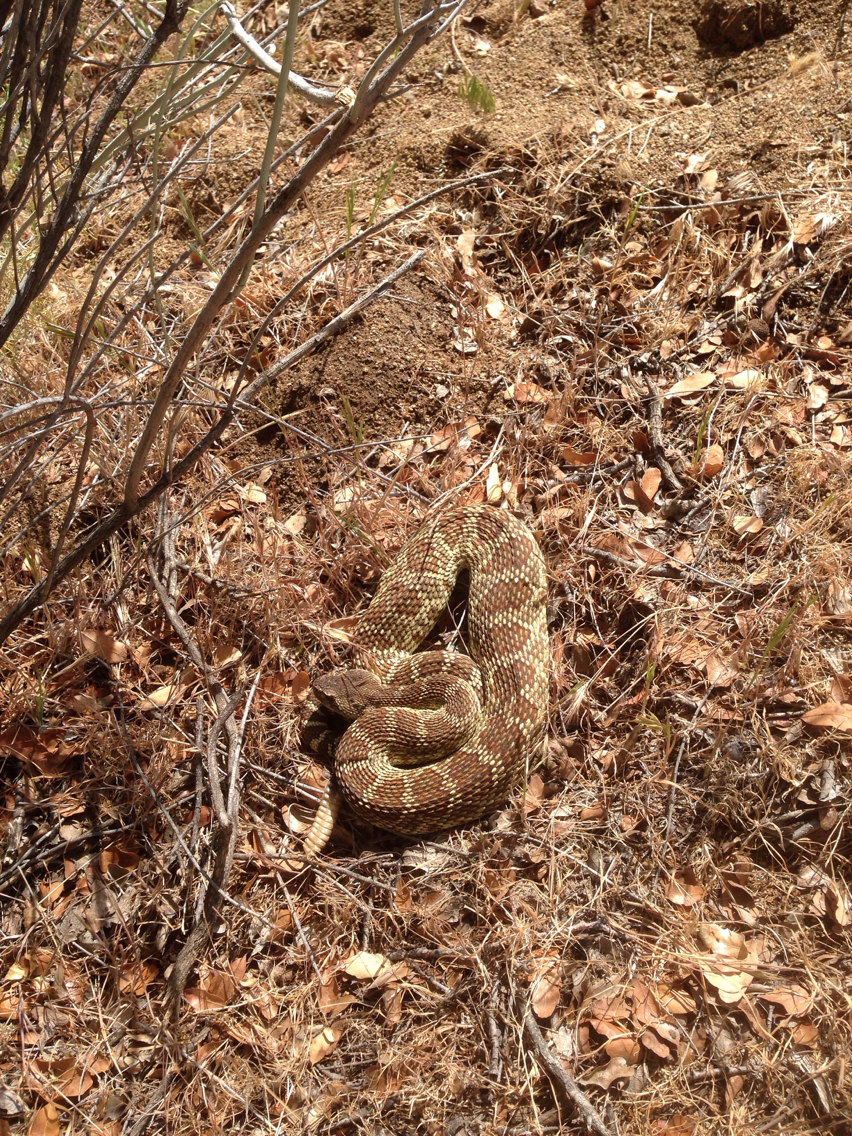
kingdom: Animalia
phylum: Chordata
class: Squamata
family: Viperidae
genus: Crotalus
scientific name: Crotalus oreganus
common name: Abyssus
